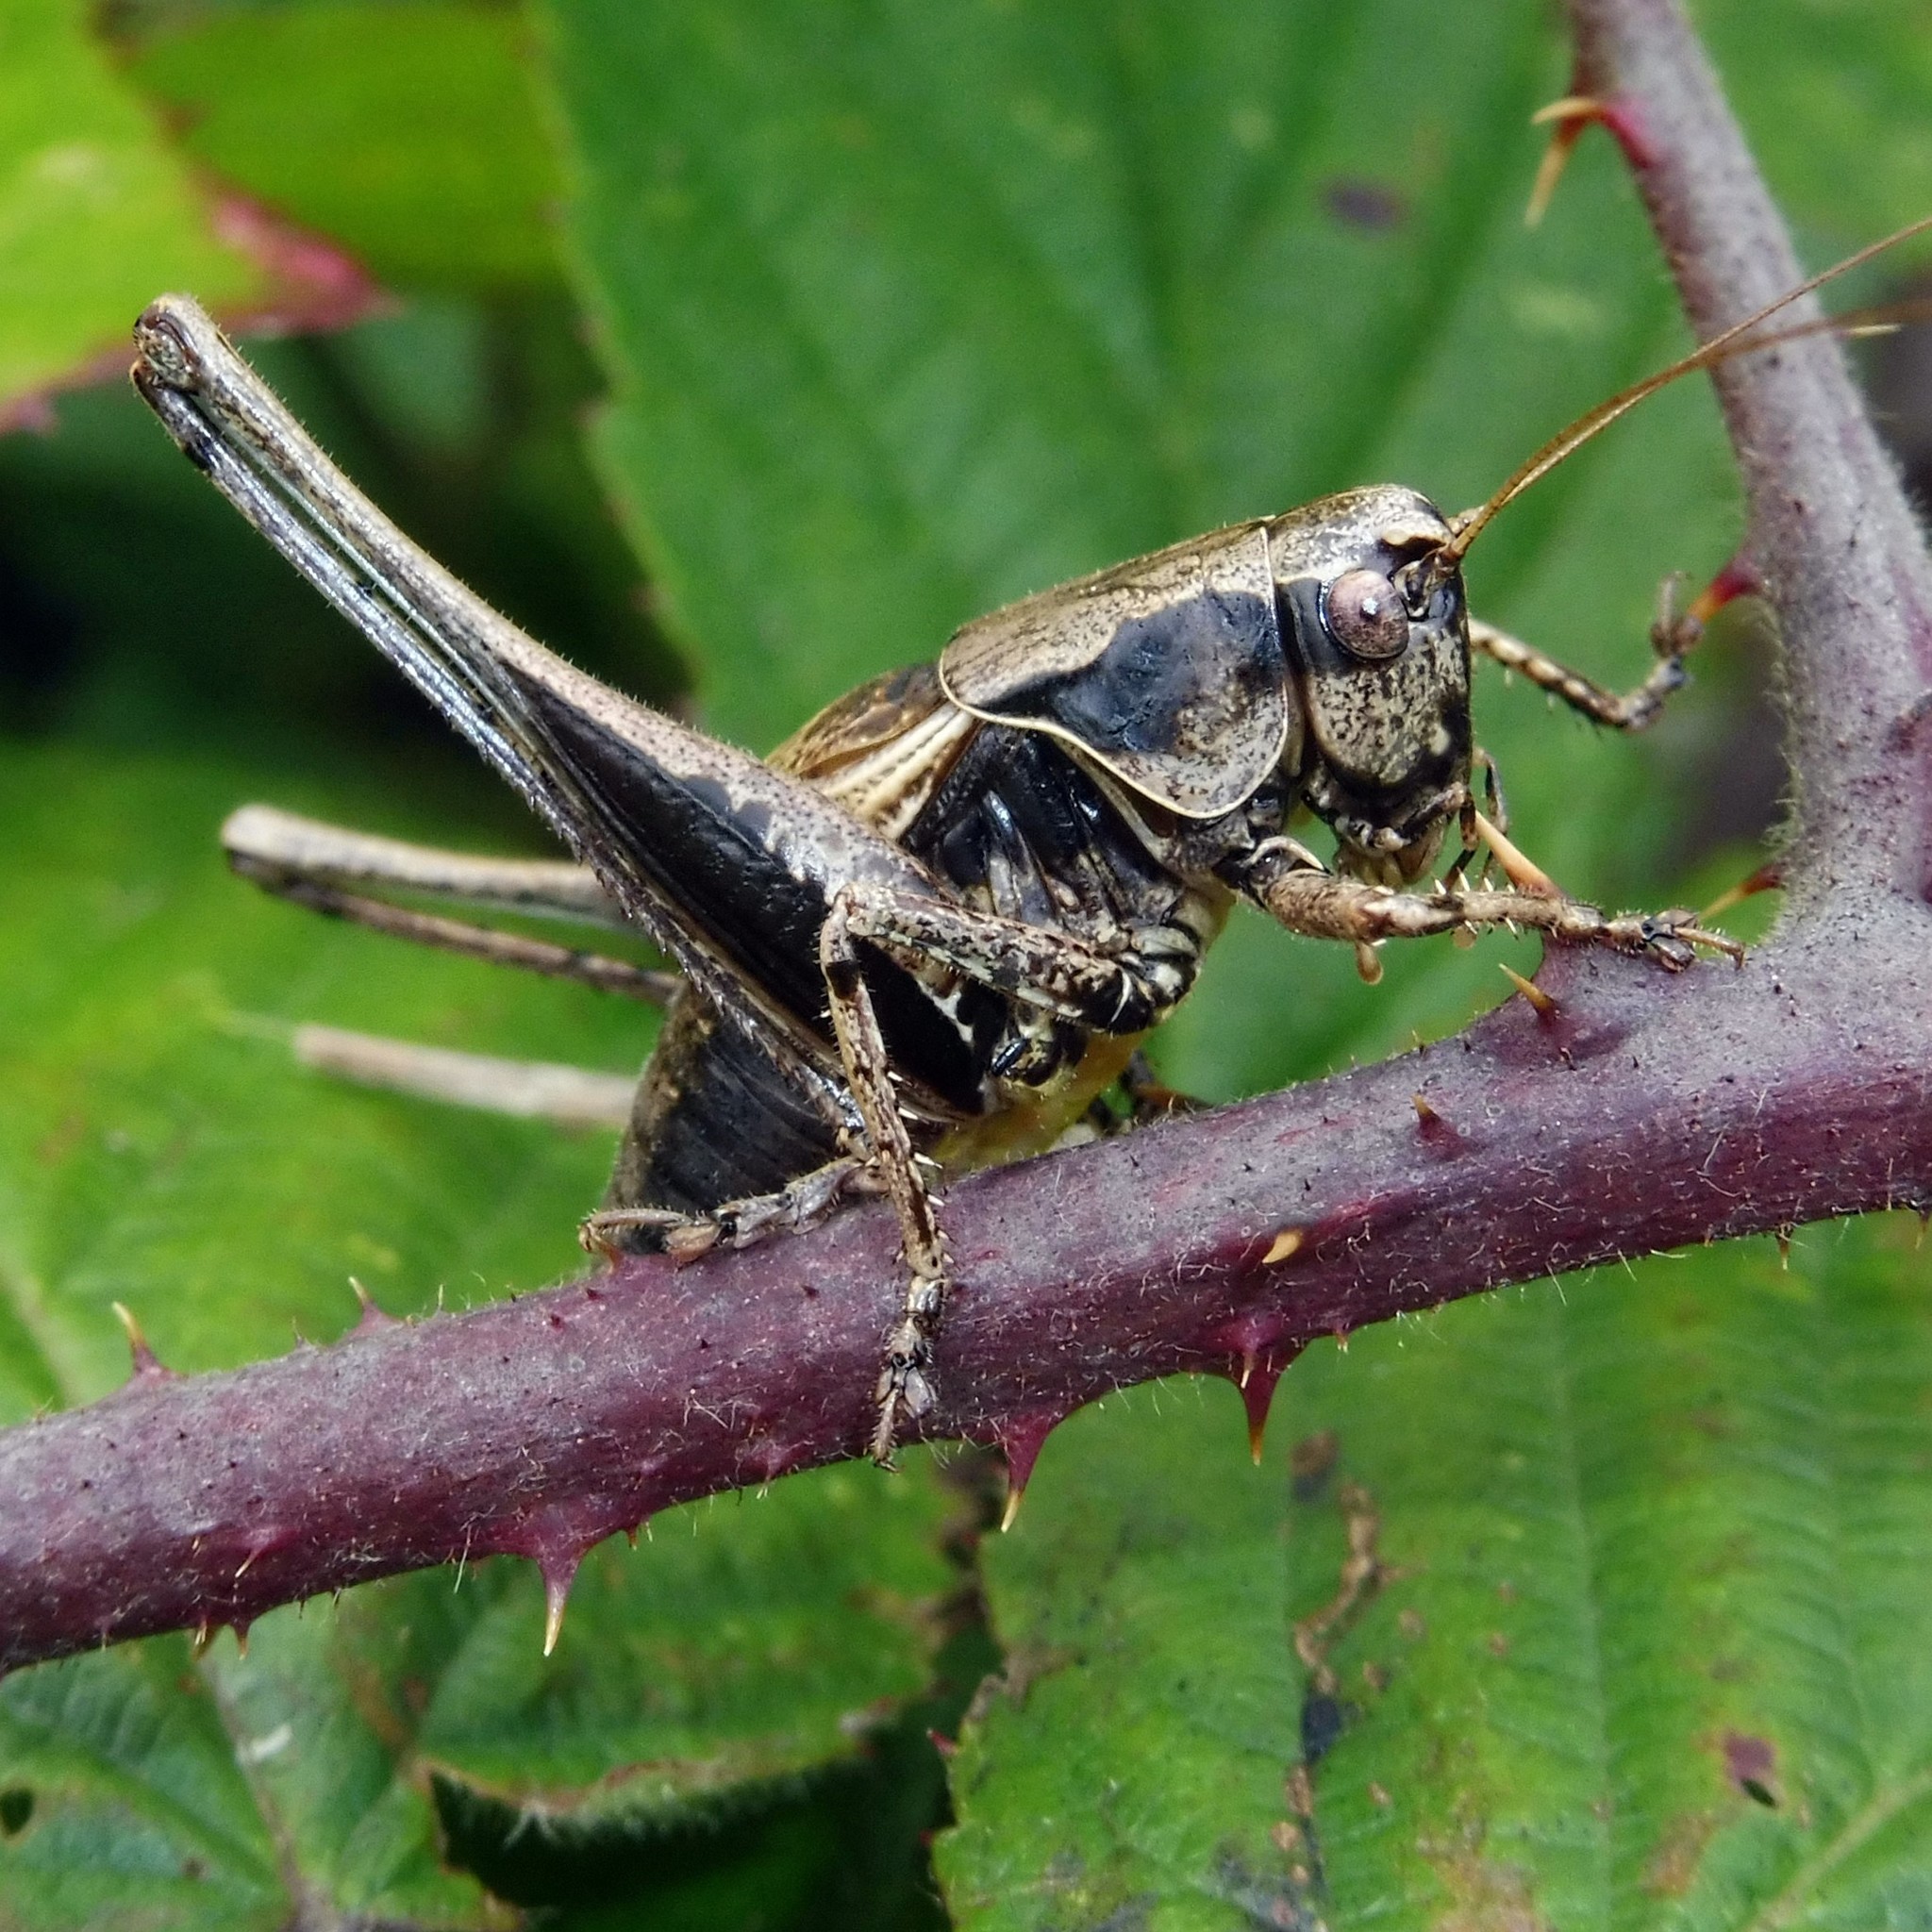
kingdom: Animalia
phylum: Arthropoda
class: Insecta
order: Orthoptera
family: Tettigoniidae
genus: Pholidoptera
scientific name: Pholidoptera griseoaptera
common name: Dark bush-cricket
